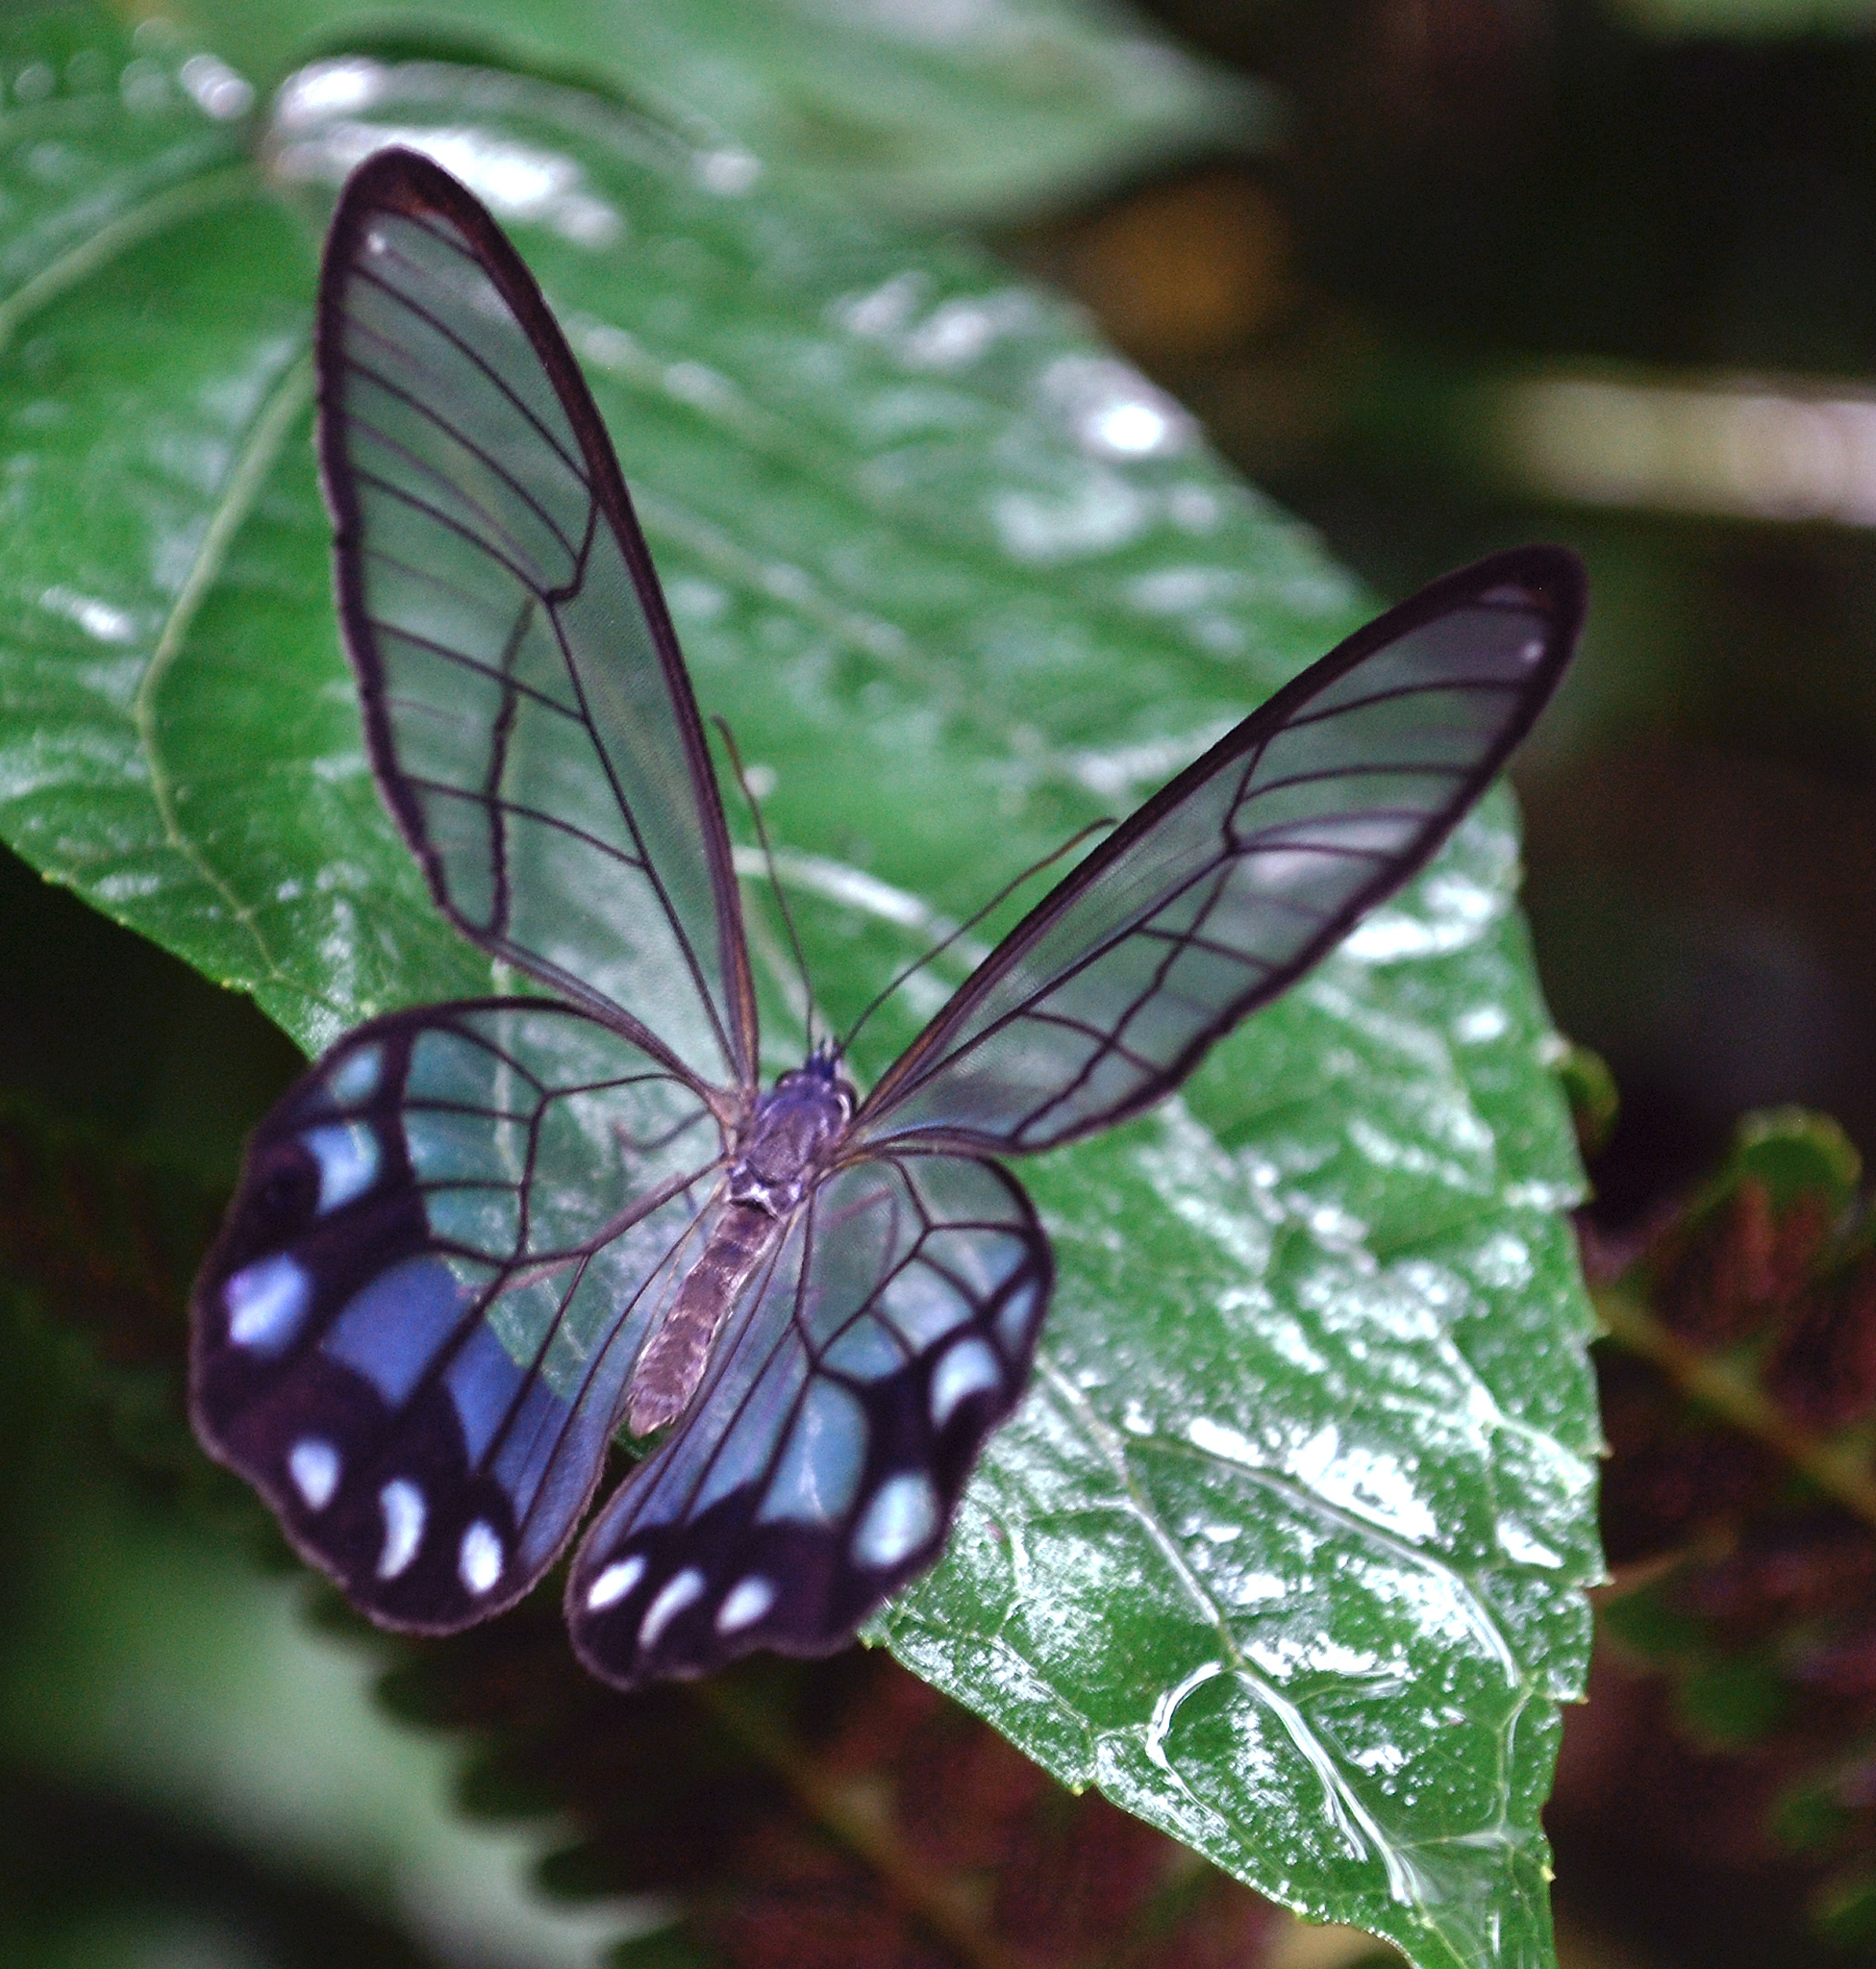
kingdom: Animalia
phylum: Arthropoda
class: Insecta
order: Lepidoptera
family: Nymphalidae
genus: Pseudohaetera
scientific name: Pseudohaetera hypaesia
